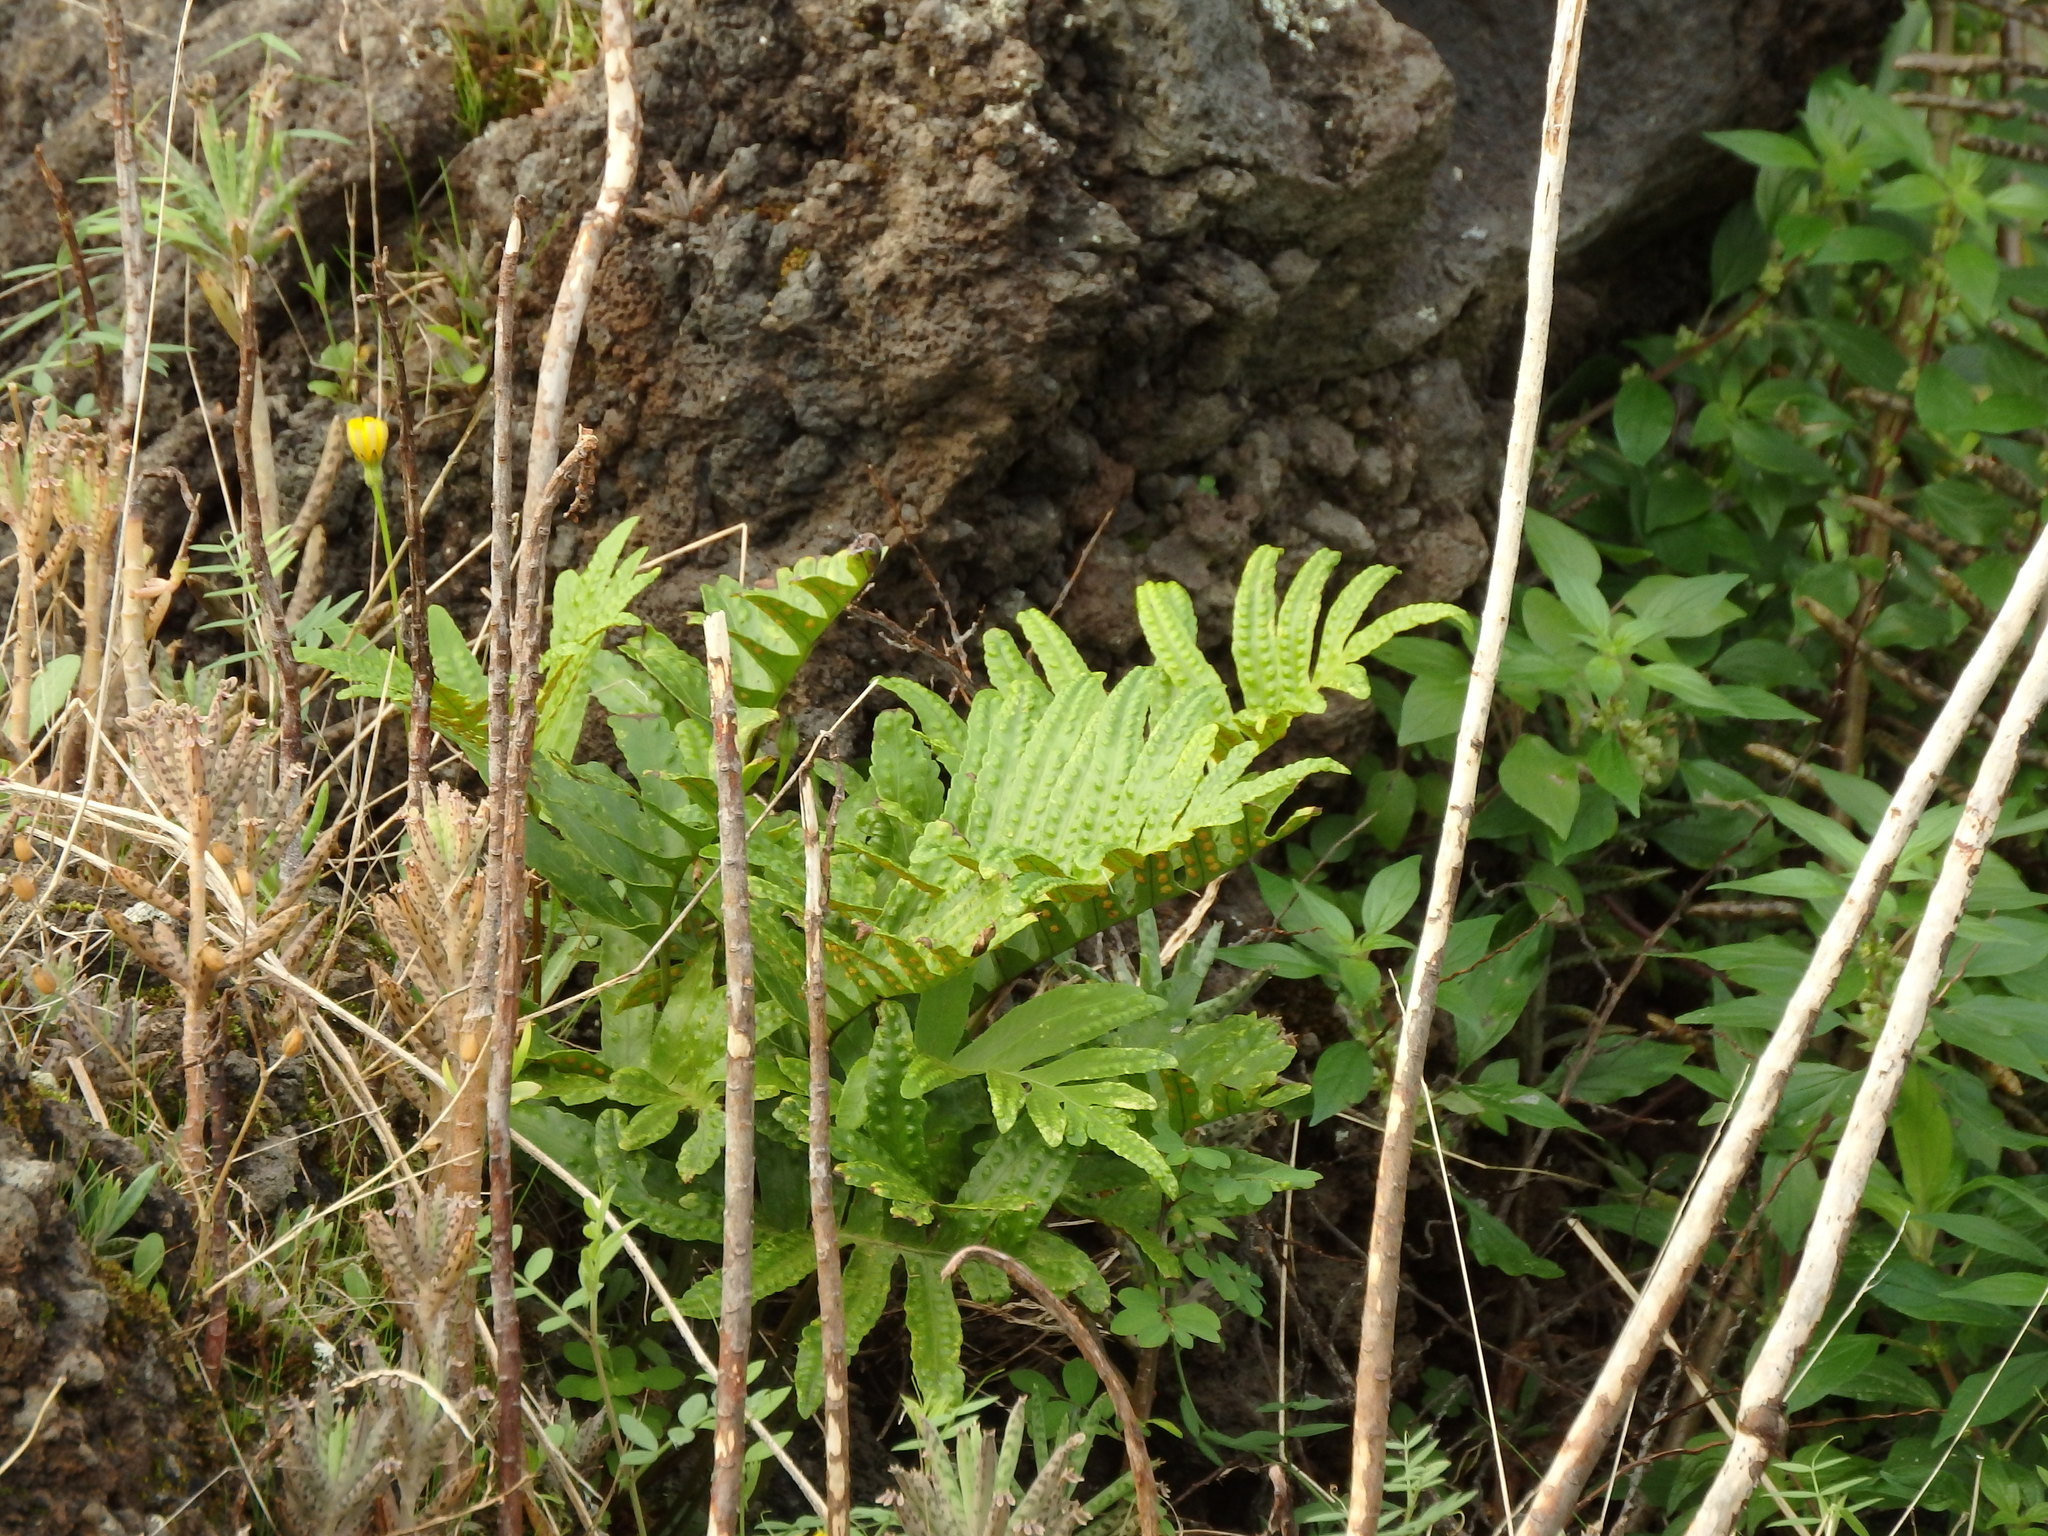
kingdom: Plantae
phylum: Tracheophyta
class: Polypodiopsida
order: Polypodiales
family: Polypodiaceae
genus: Polypodium
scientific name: Polypodium macaronesicum
